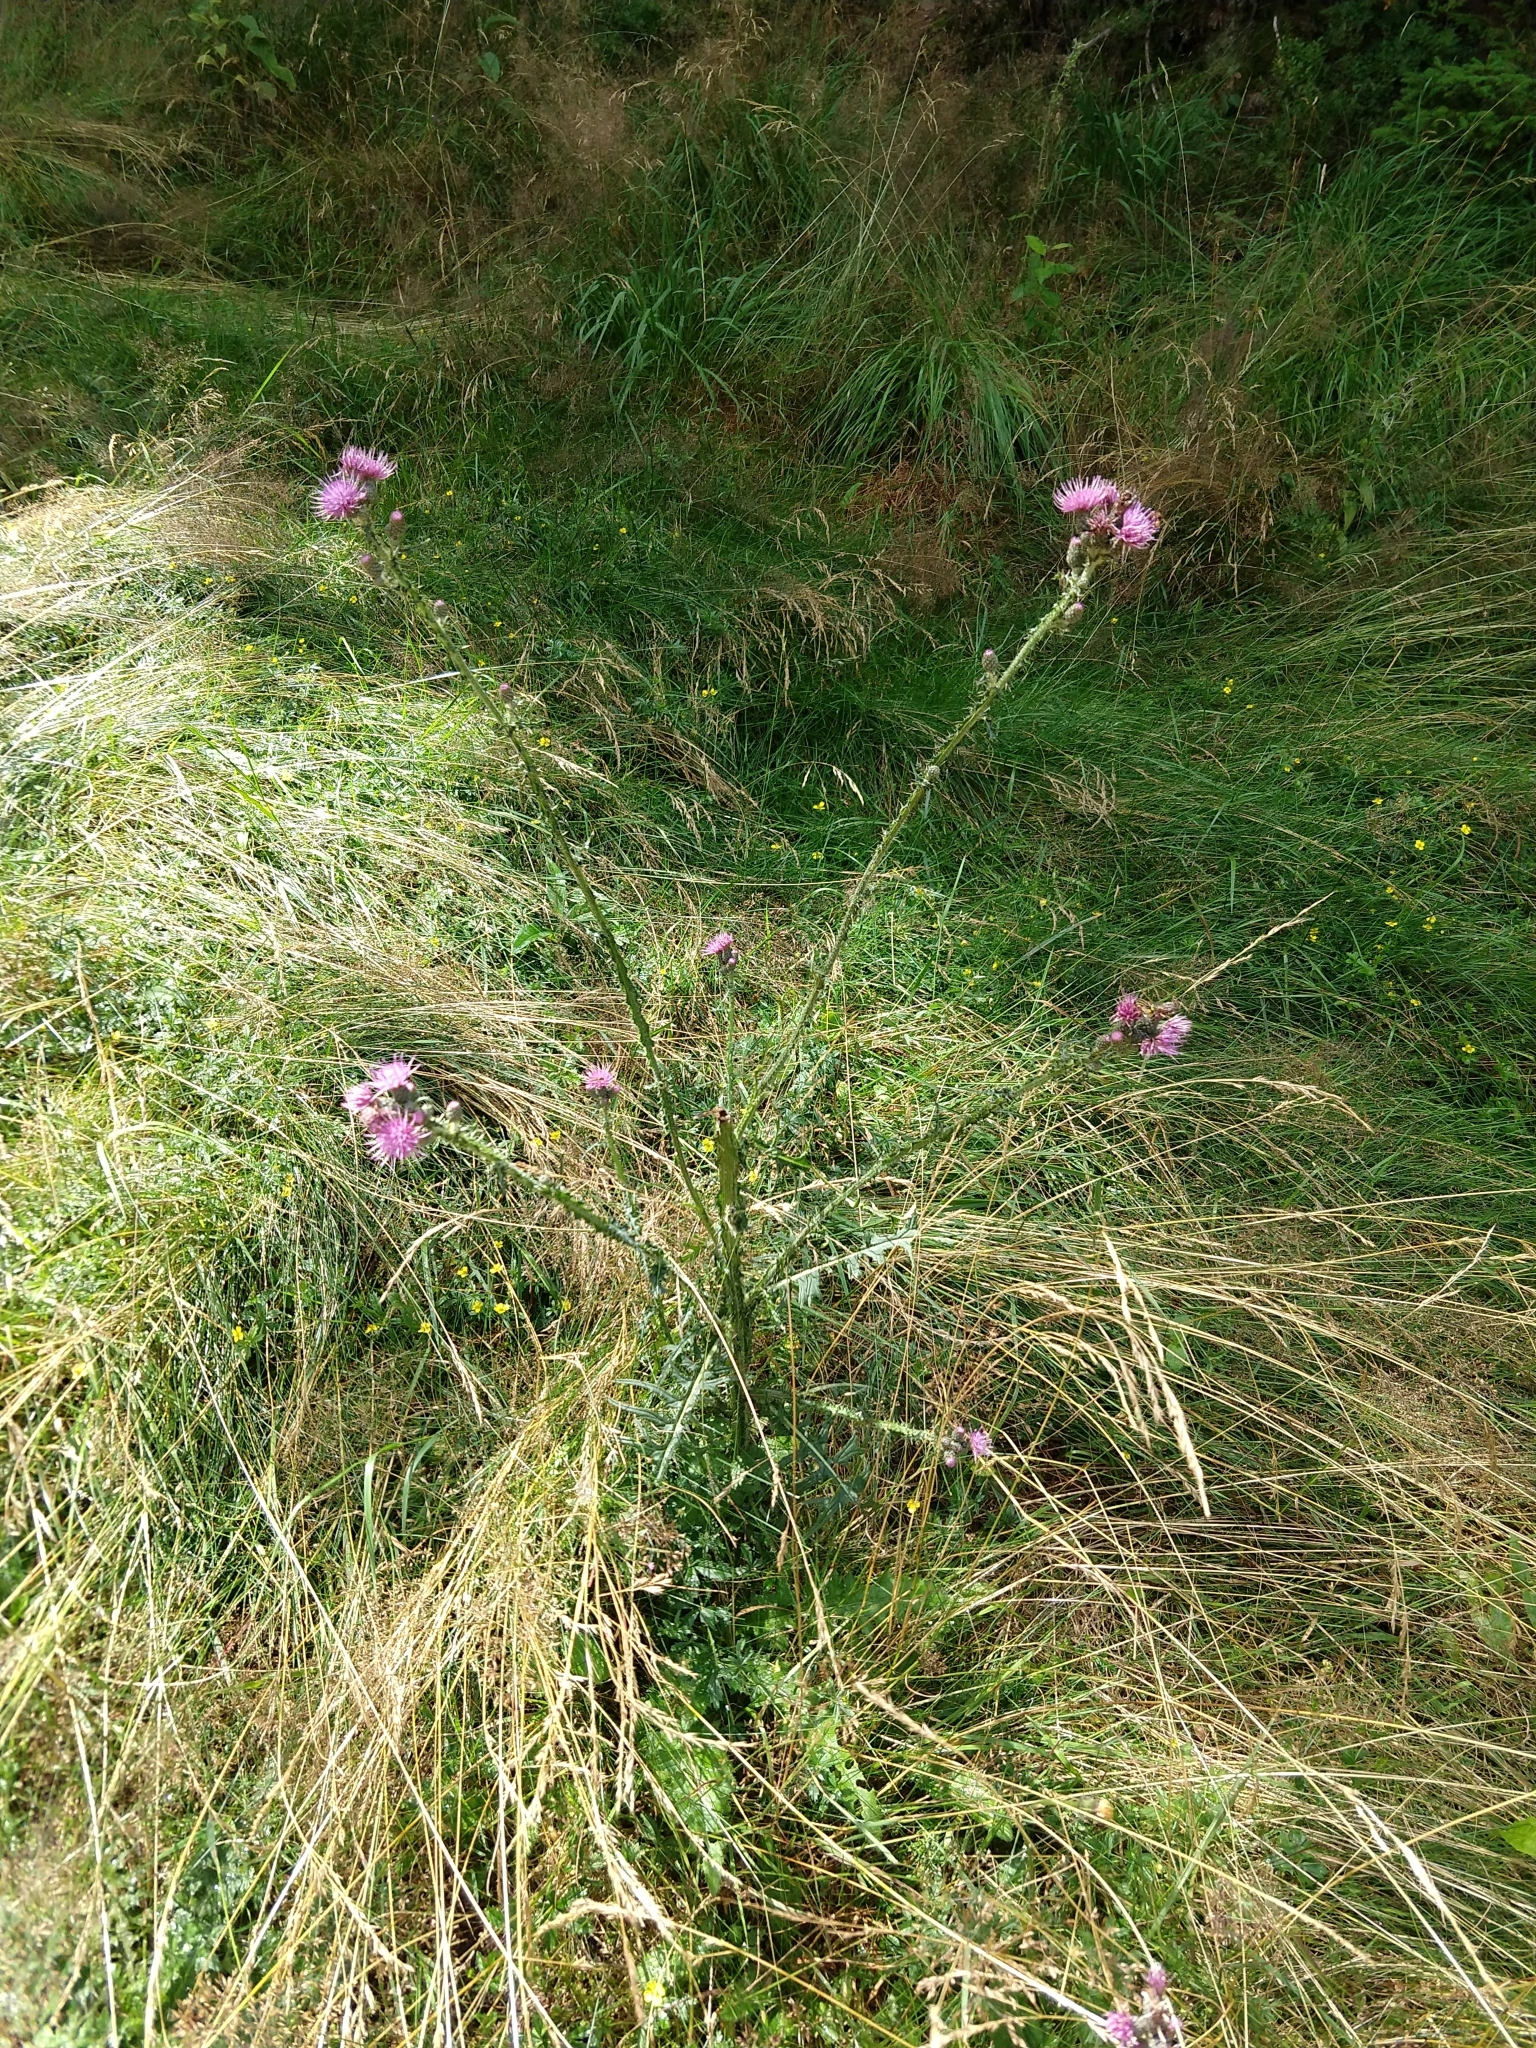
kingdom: Plantae
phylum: Tracheophyta
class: Magnoliopsida
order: Asterales
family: Asteraceae
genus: Cirsium
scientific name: Cirsium palustre
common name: Marsh thistle
